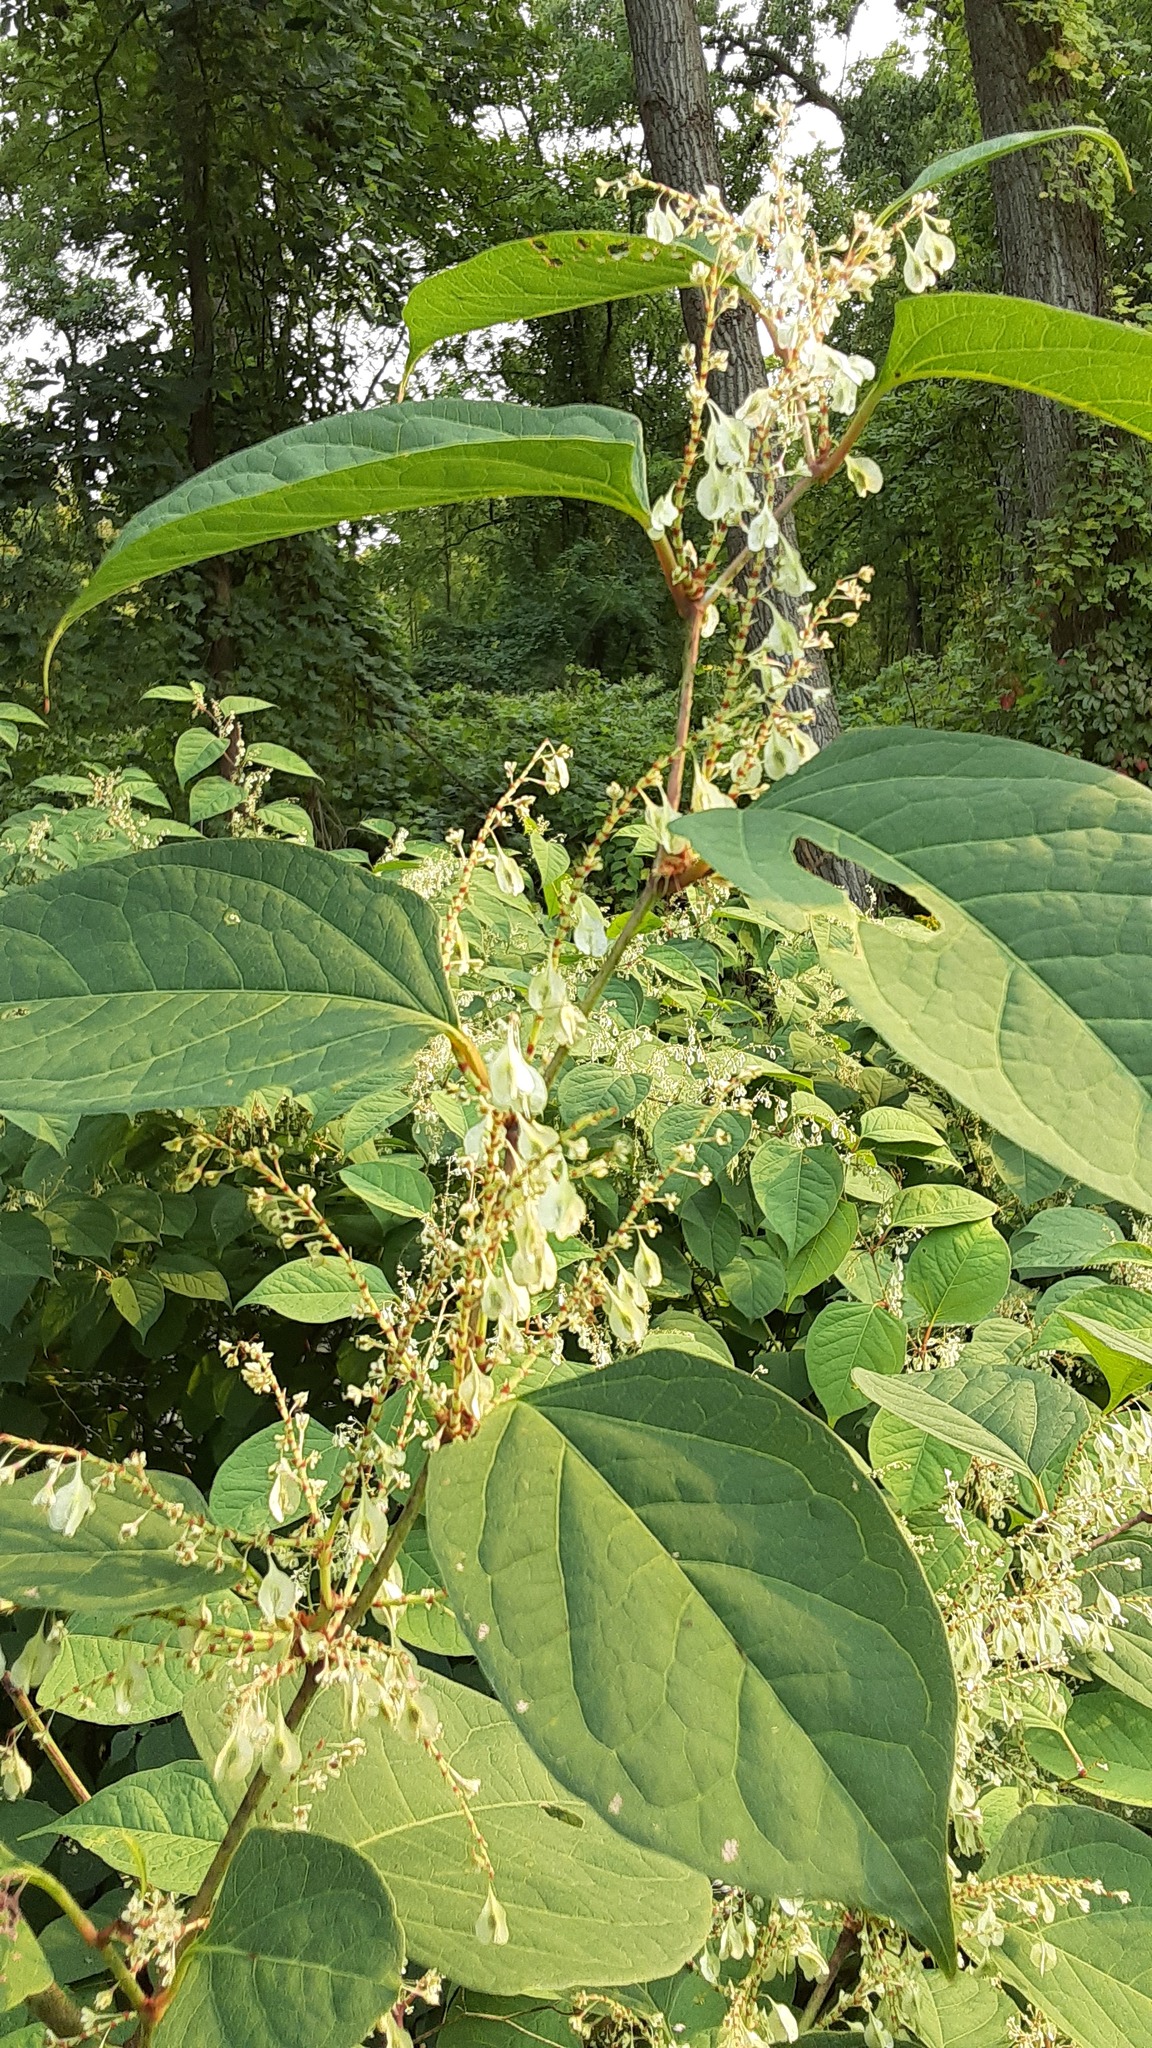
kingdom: Plantae
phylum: Tracheophyta
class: Magnoliopsida
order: Caryophyllales
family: Polygonaceae
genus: Reynoutria
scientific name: Reynoutria japonica
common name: Japanese knotweed
